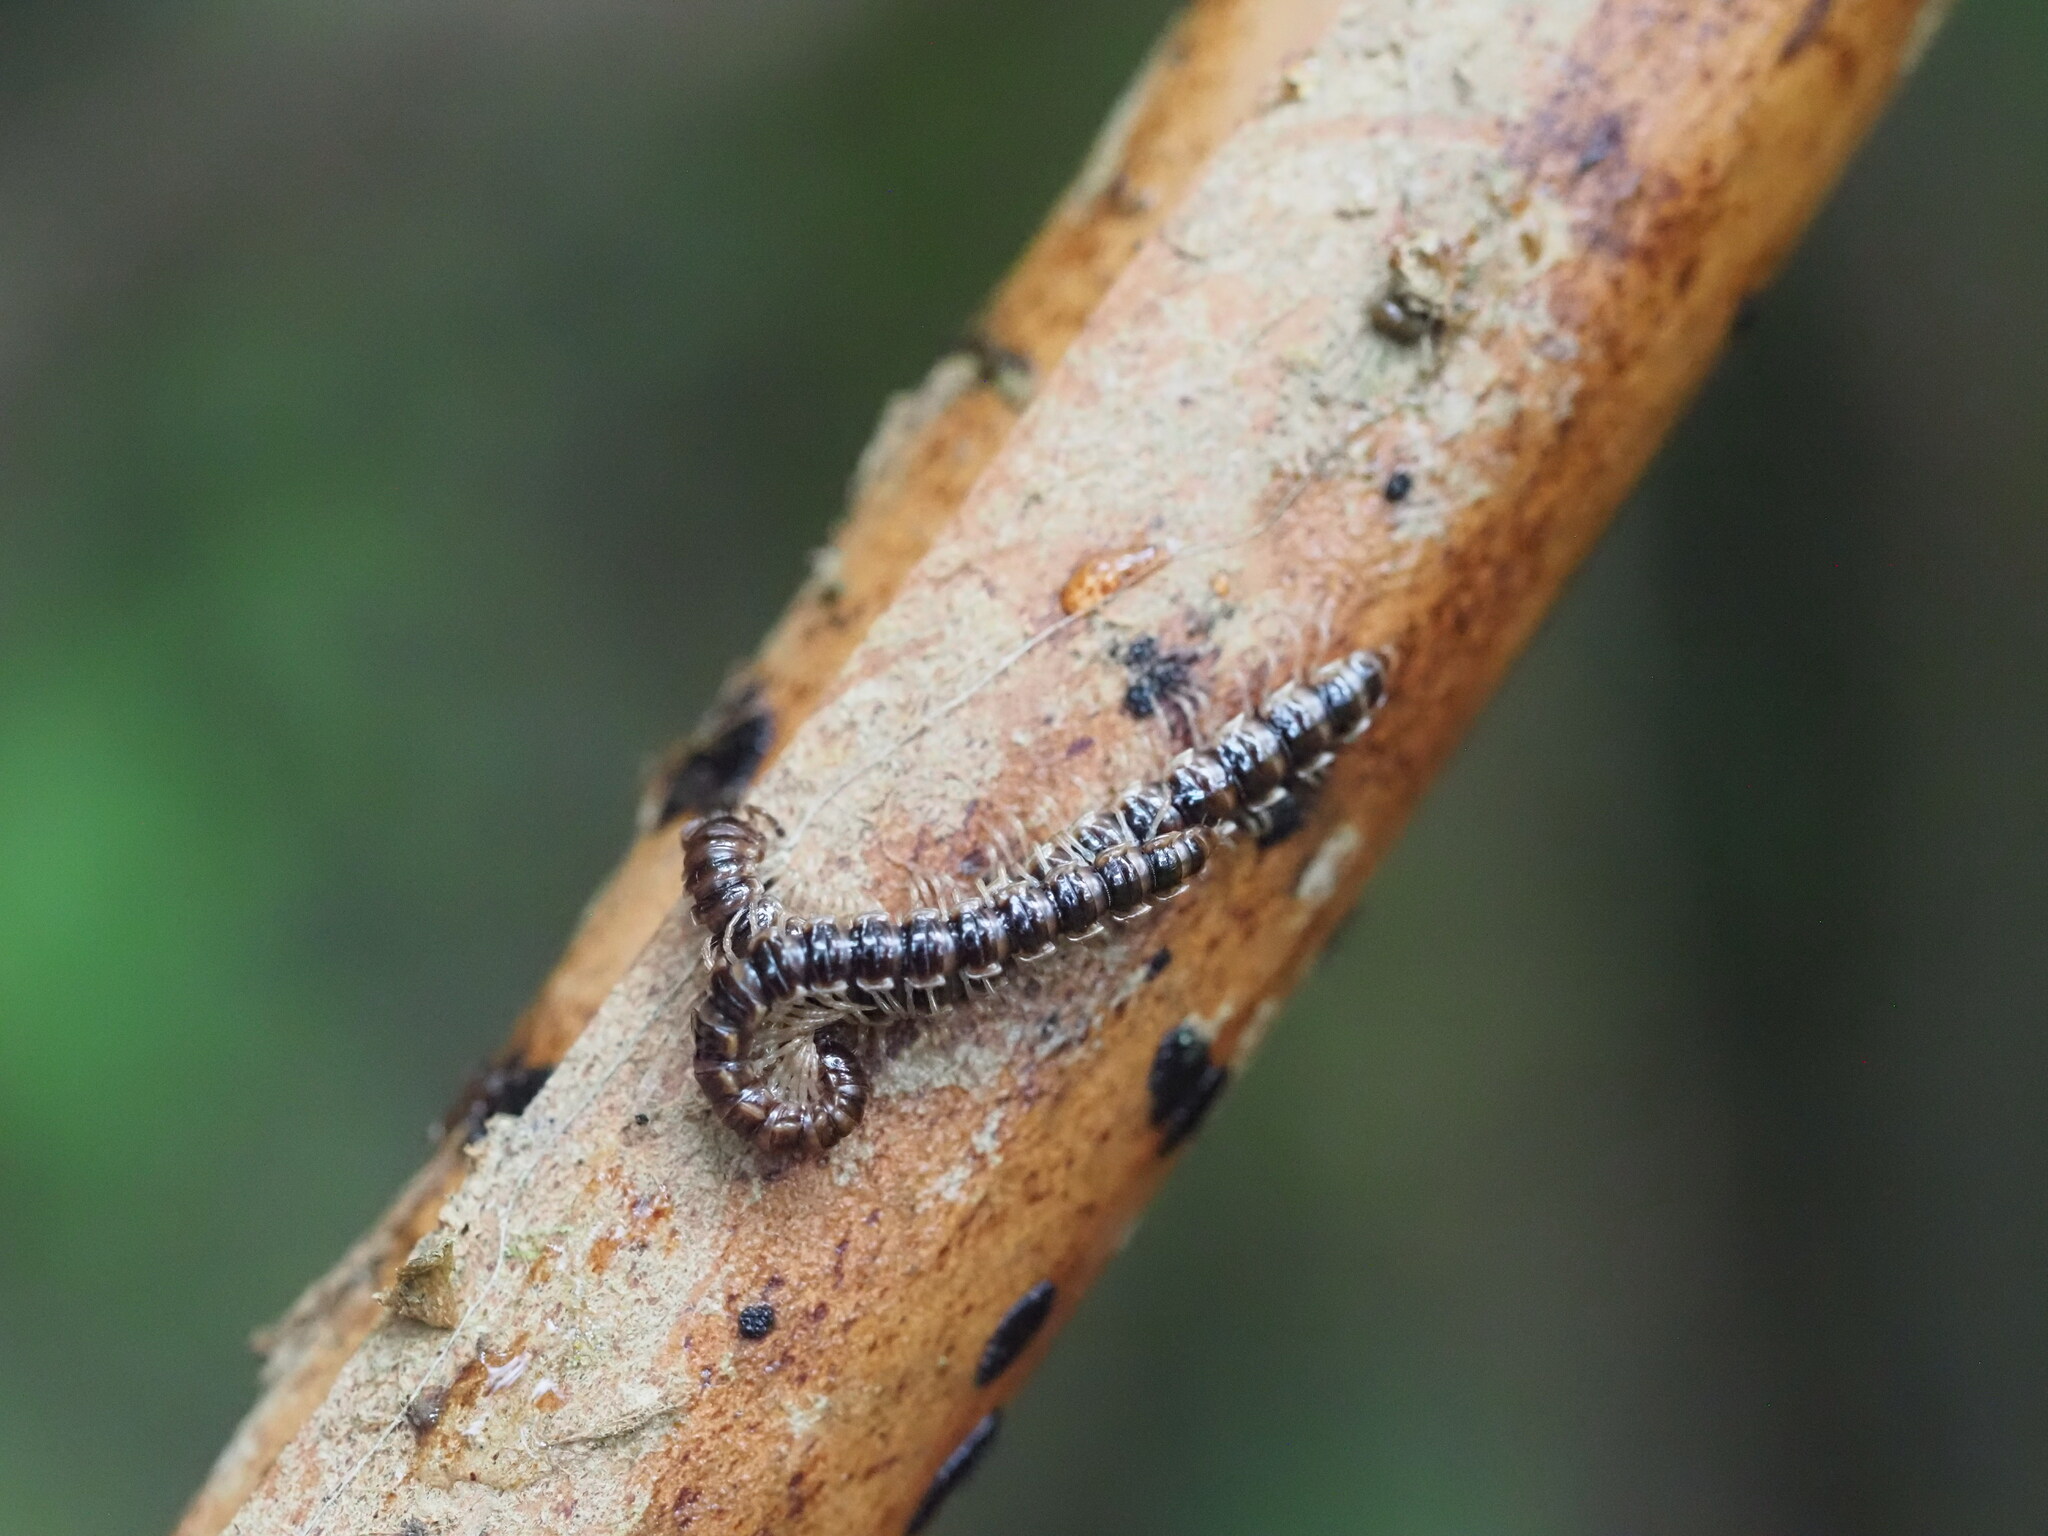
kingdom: Animalia
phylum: Arthropoda
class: Diplopoda
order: Polydesmida
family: Paradoxosomatidae
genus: Oxidus
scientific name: Oxidus gracilis
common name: Greenhouse millipede
